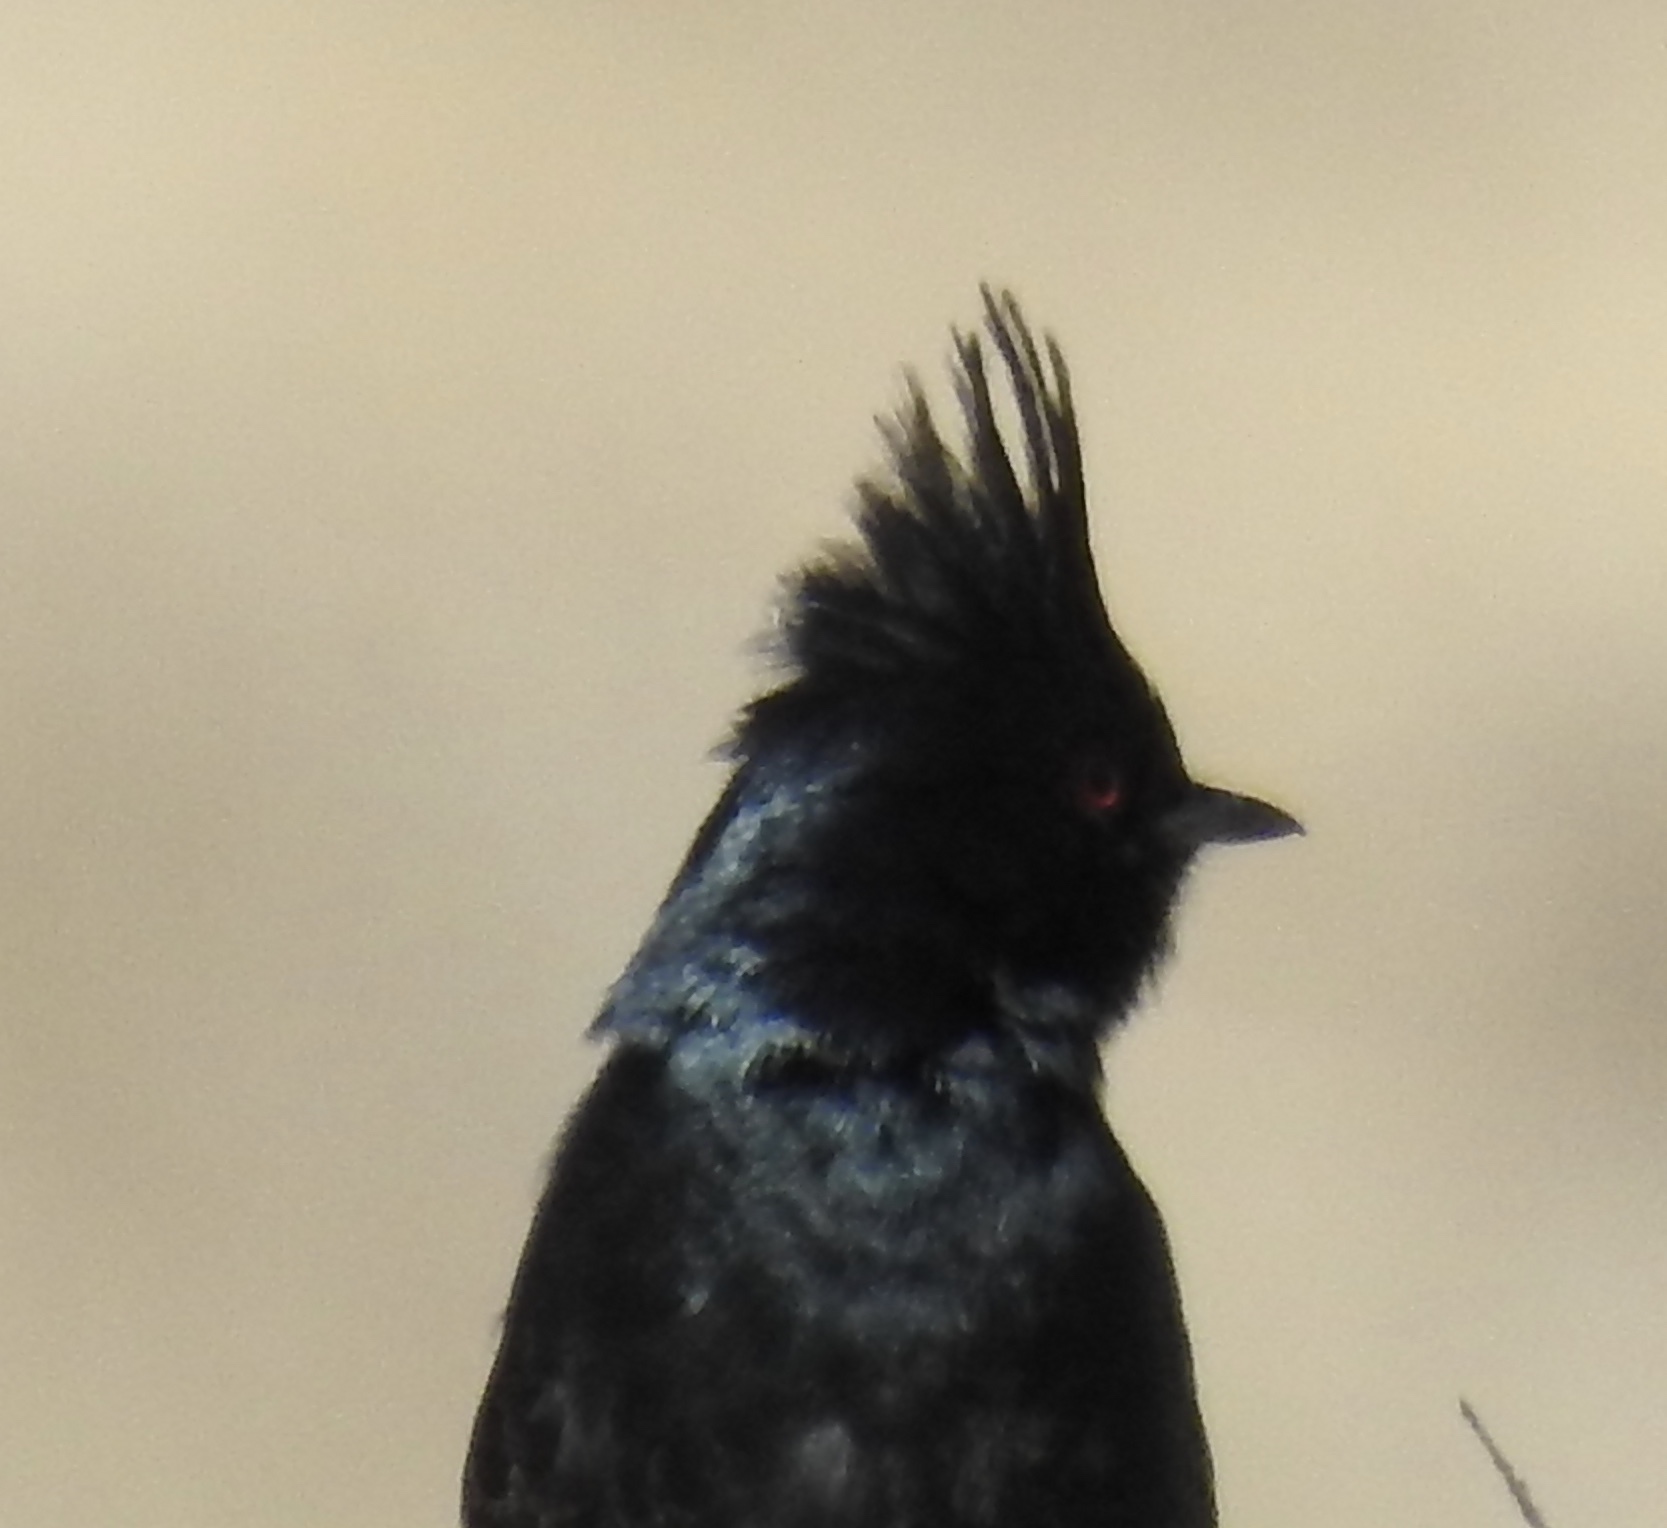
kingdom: Animalia
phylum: Chordata
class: Aves
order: Passeriformes
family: Ptilogonatidae
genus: Phainopepla
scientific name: Phainopepla nitens
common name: Phainopepla
